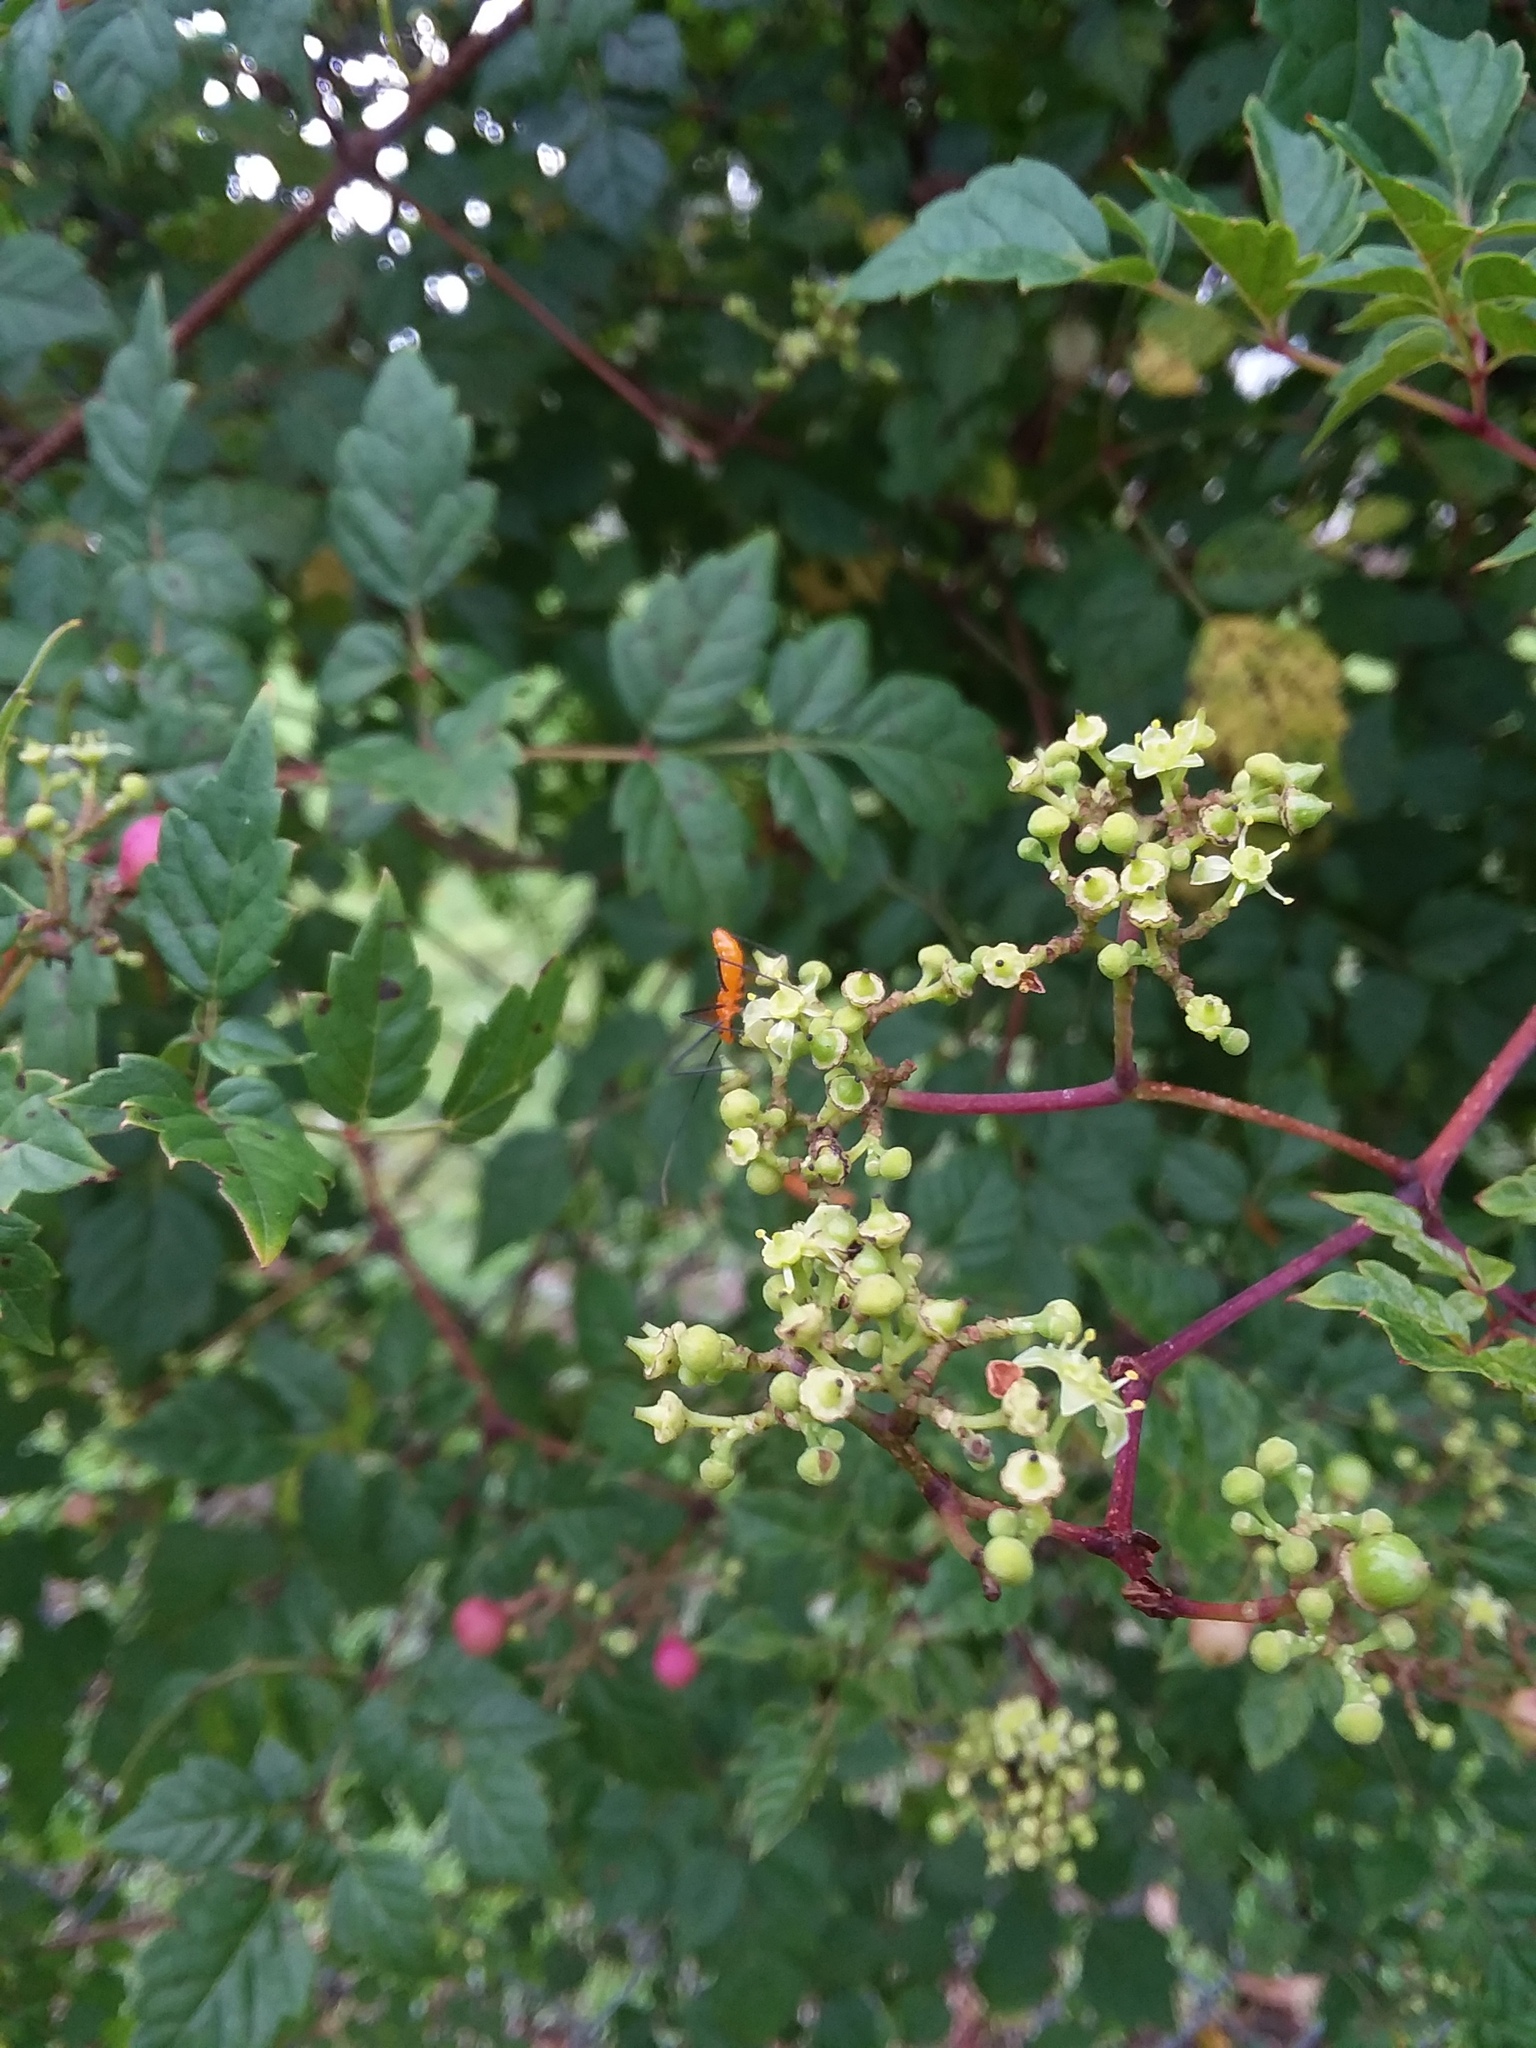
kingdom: Plantae
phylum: Tracheophyta
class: Magnoliopsida
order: Vitales
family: Vitaceae
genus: Nekemias
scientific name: Nekemias arborea
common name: Peppervine
